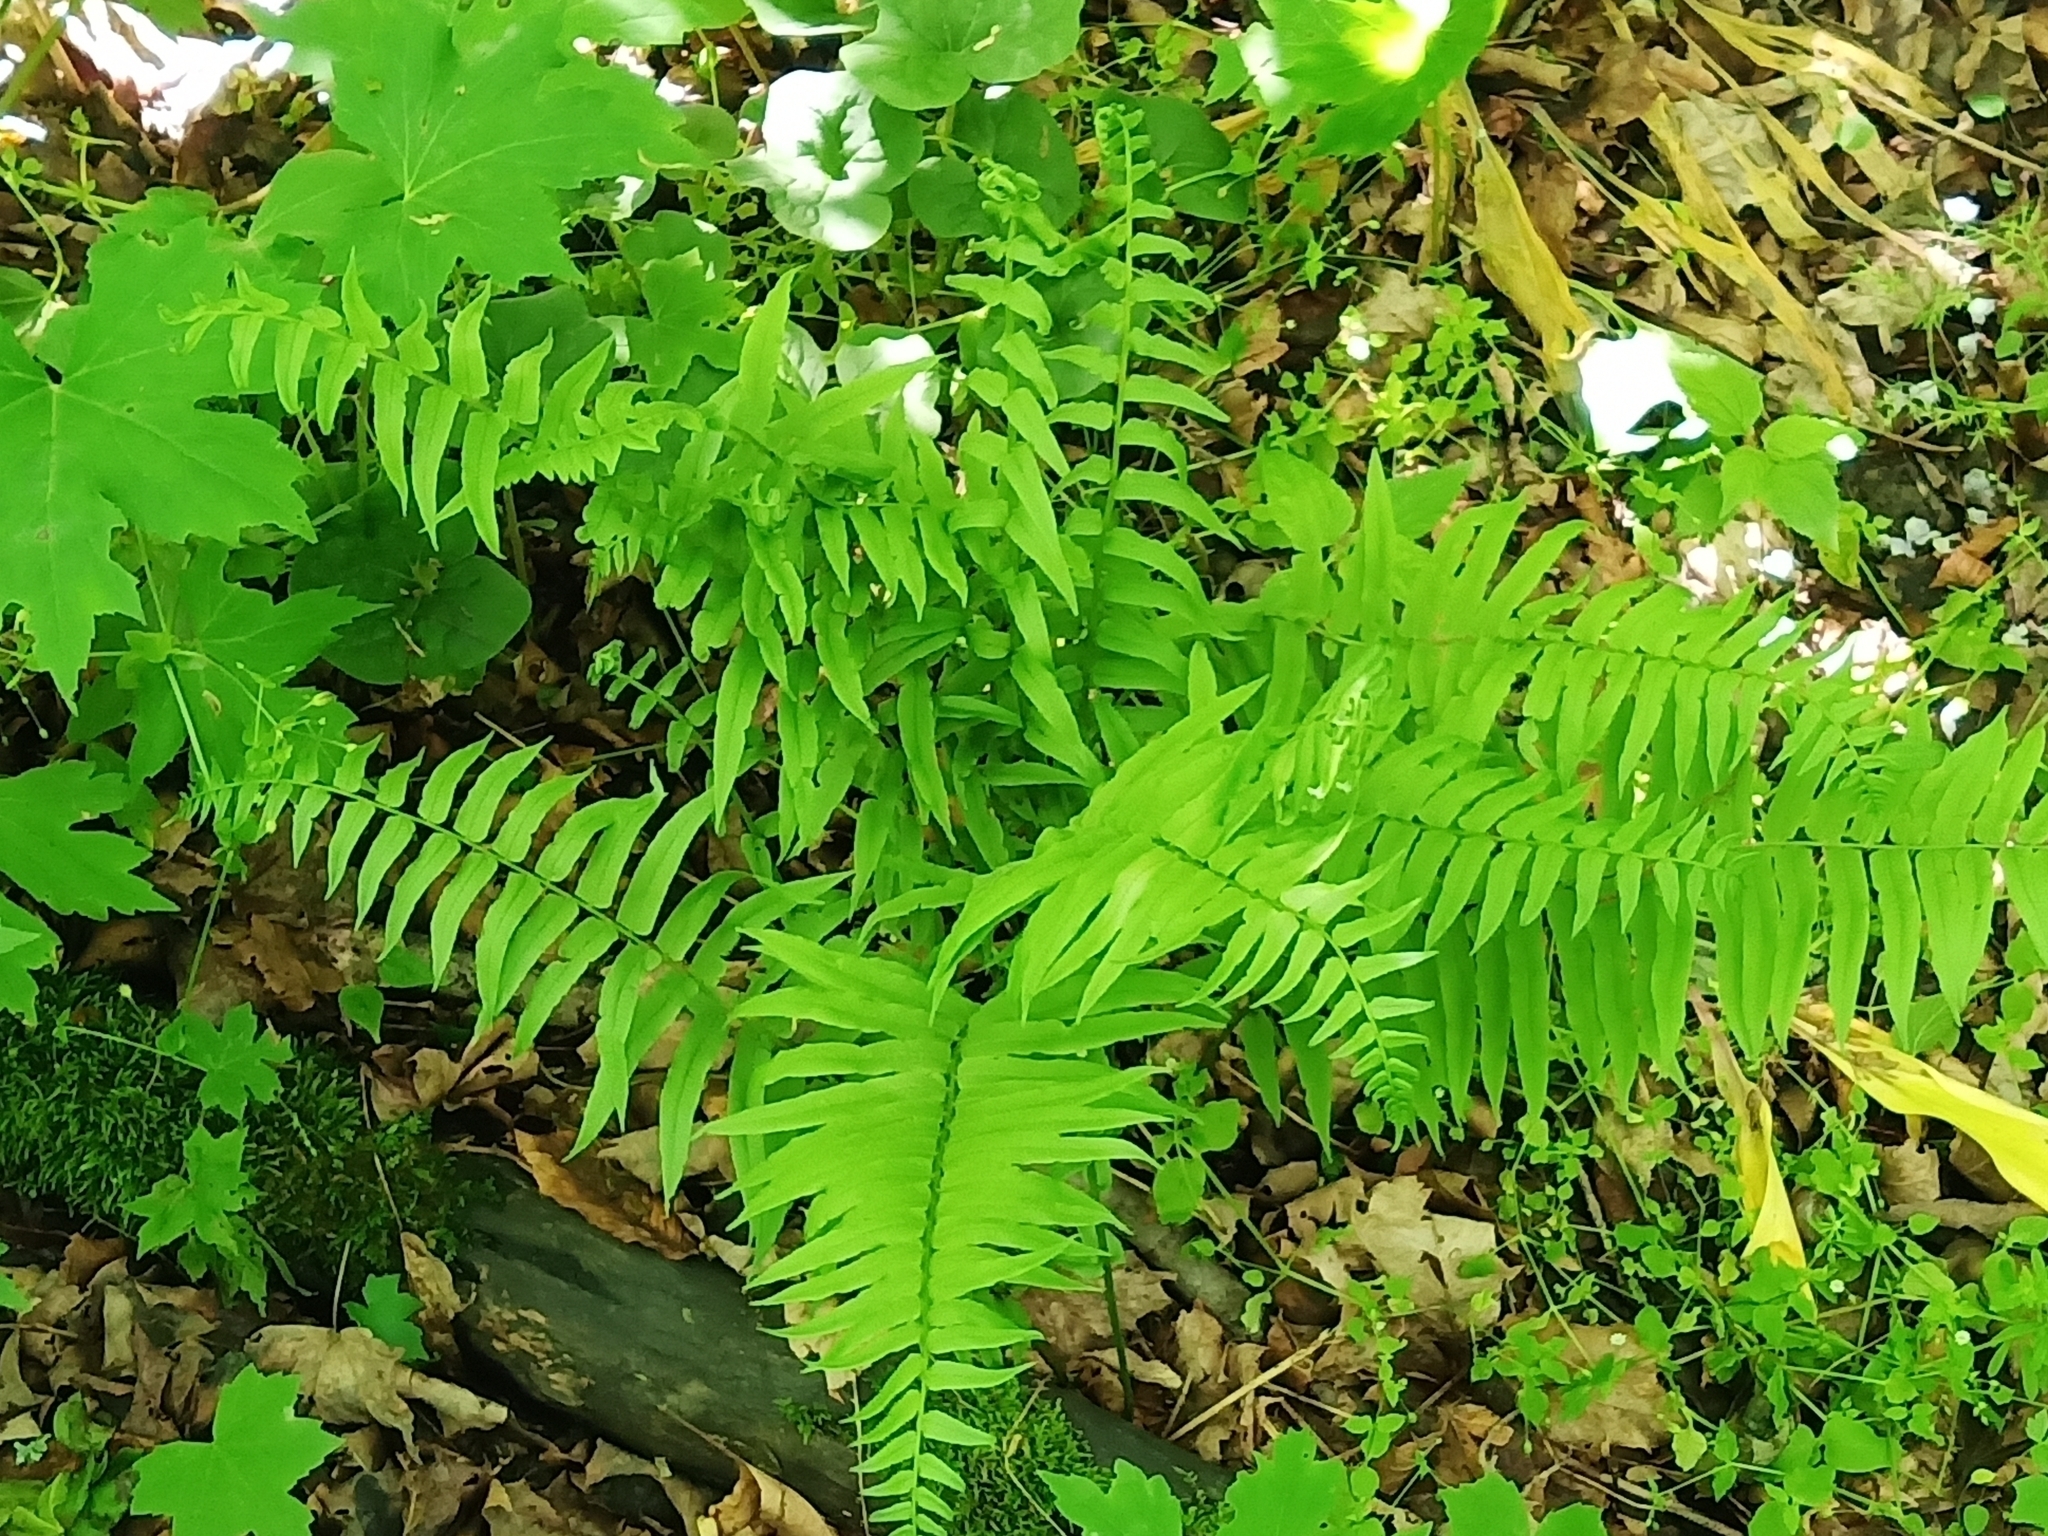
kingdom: Plantae
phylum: Tracheophyta
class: Polypodiopsida
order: Polypodiales
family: Diplaziopsidaceae
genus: Homalosorus
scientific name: Homalosorus pycnocarpos
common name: Glade fern
